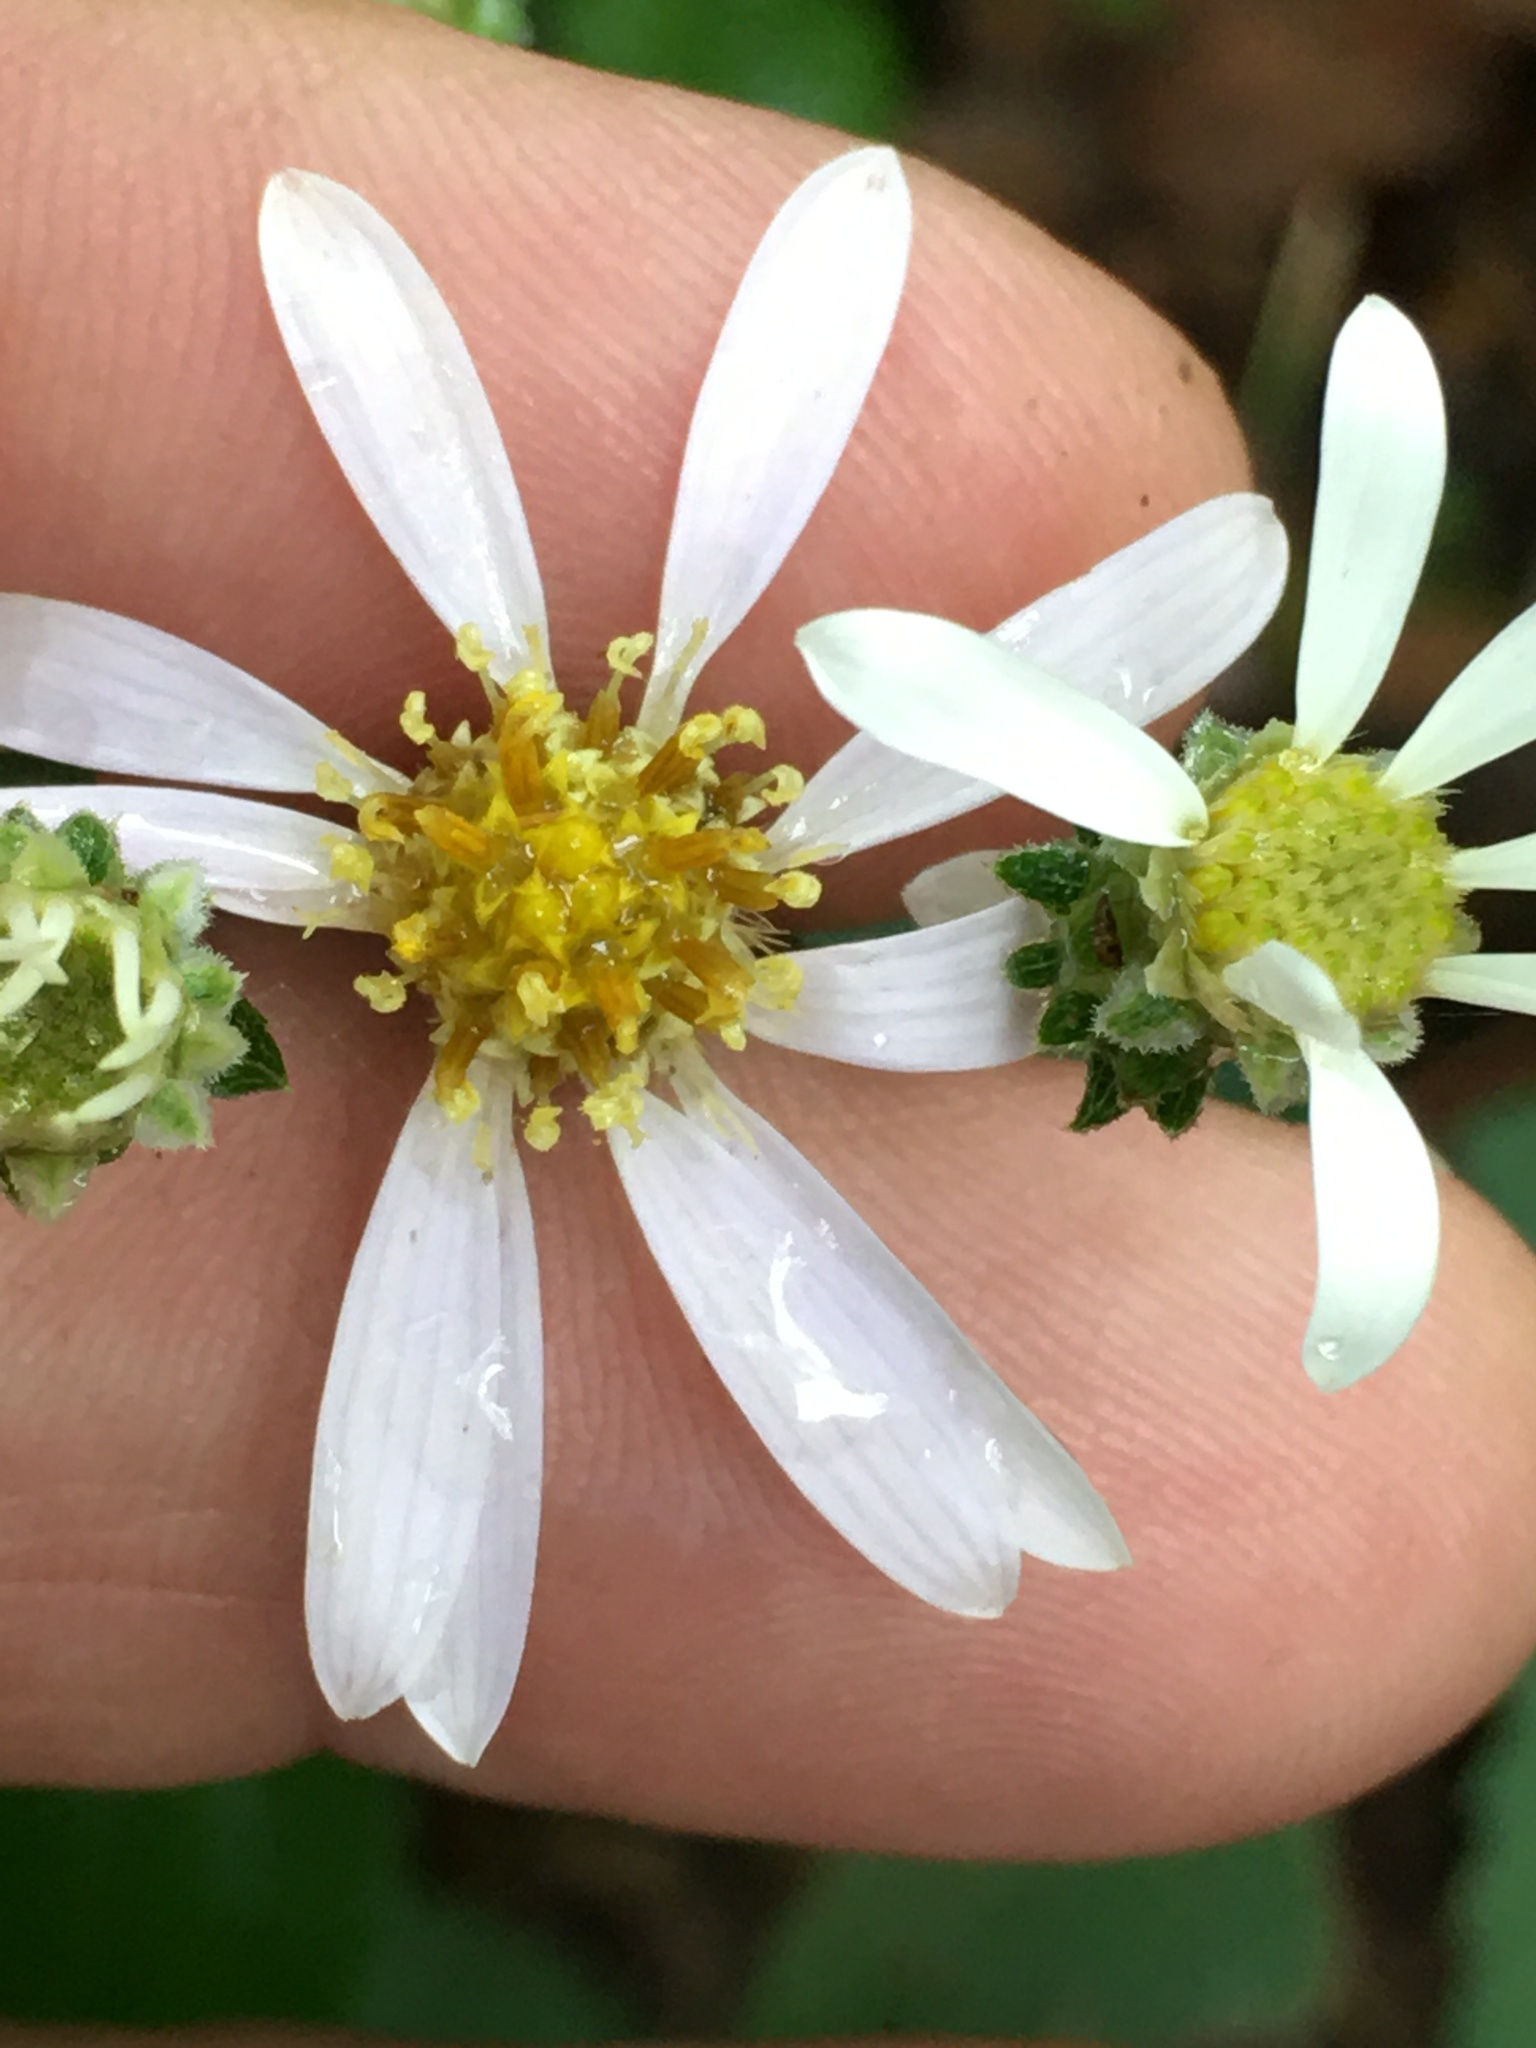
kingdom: Plantae
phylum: Tracheophyta
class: Magnoliopsida
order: Asterales
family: Asteraceae
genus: Eurybia
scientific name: Eurybia mirabilis
